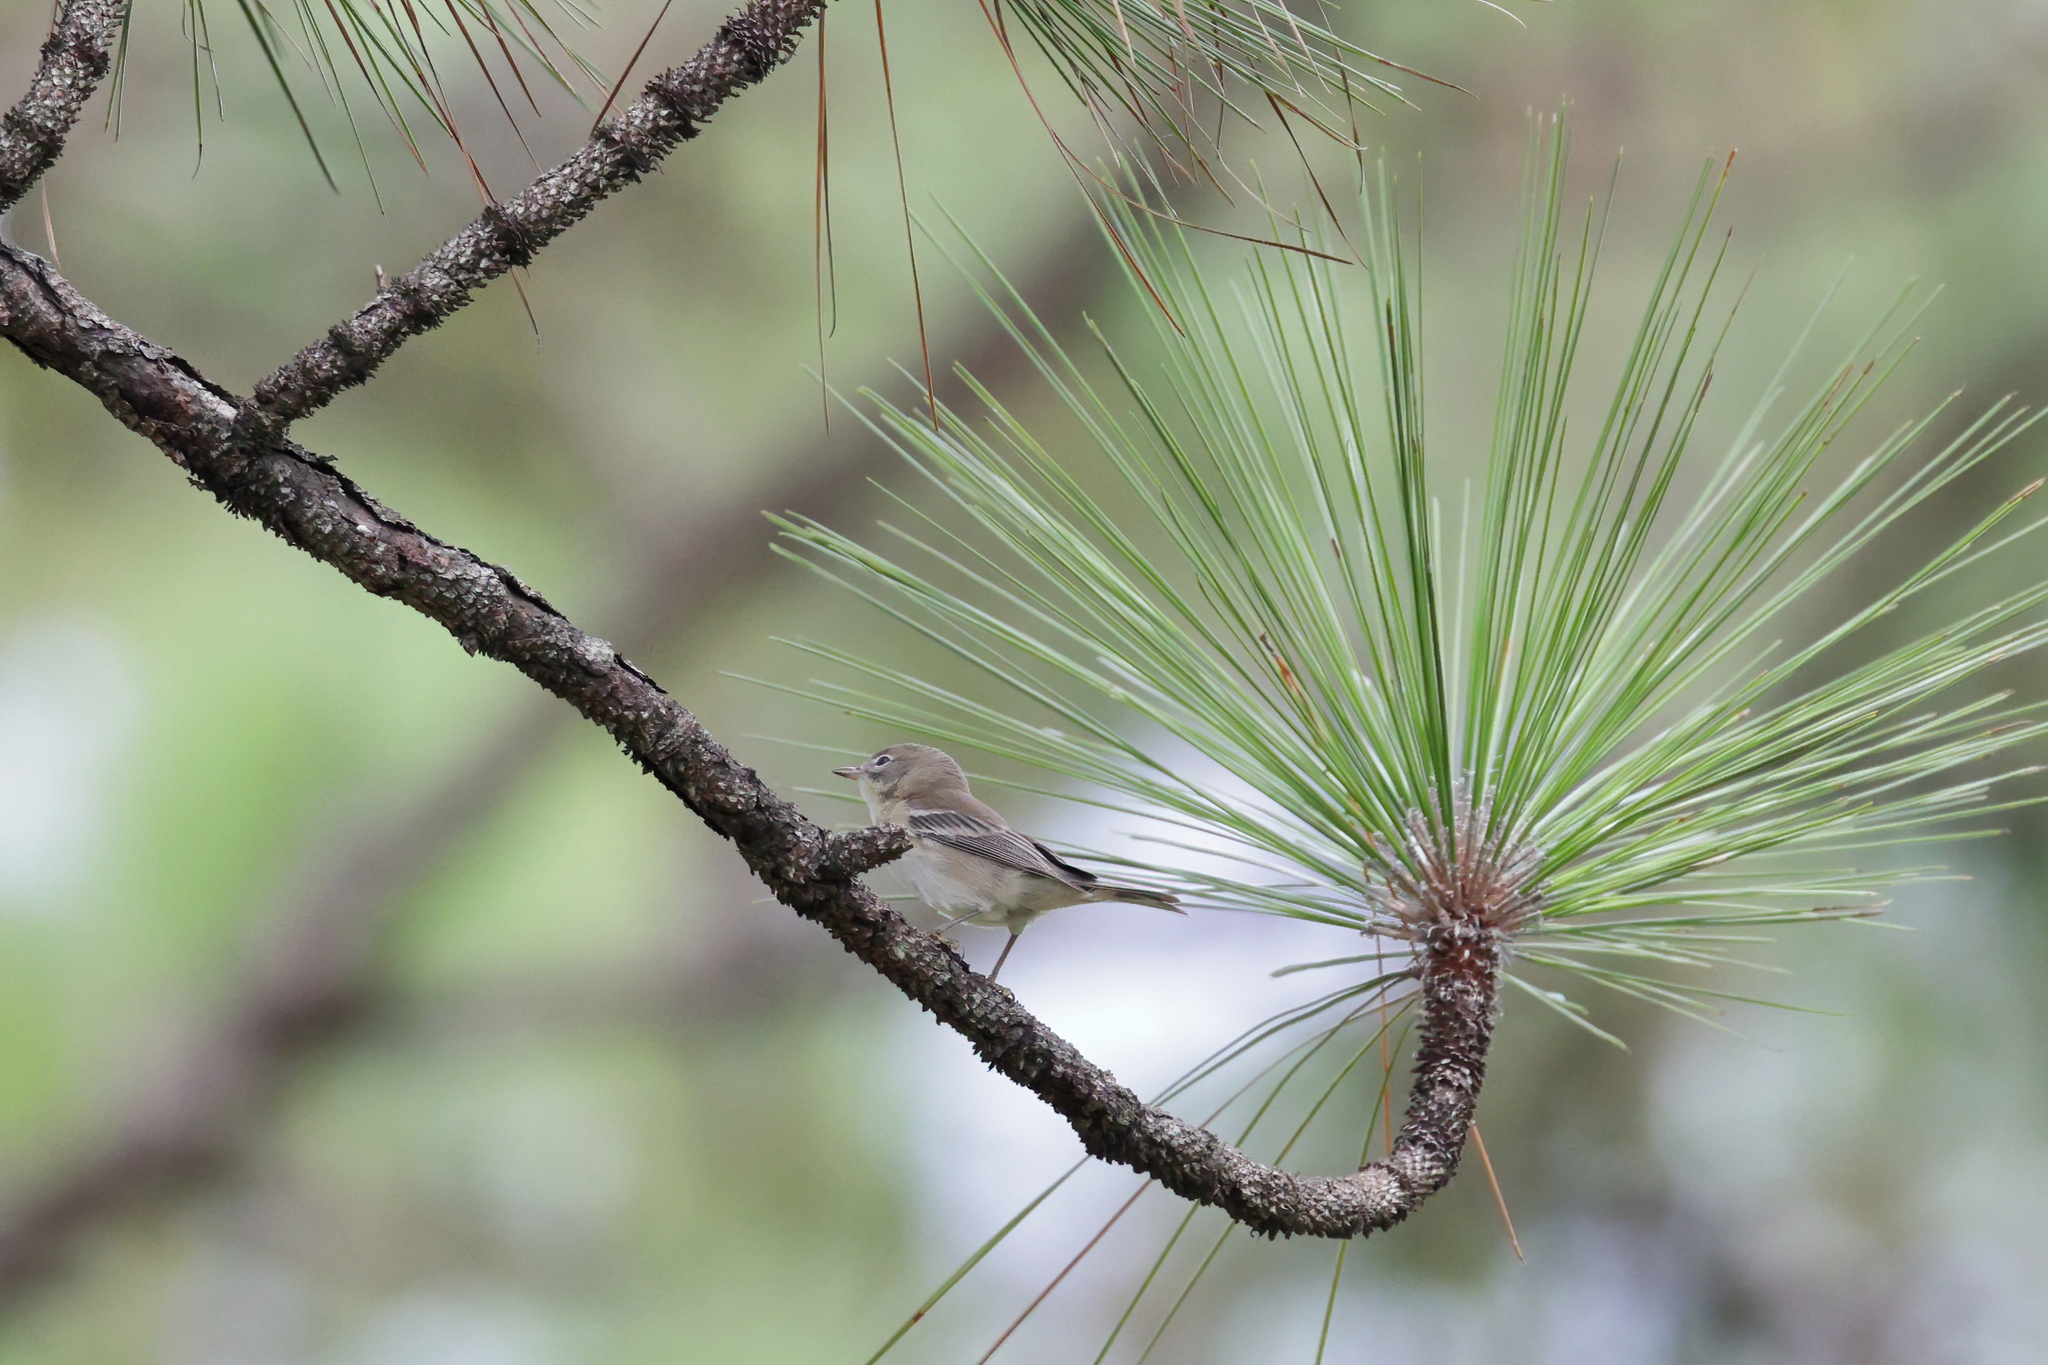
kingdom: Animalia
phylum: Chordata
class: Aves
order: Passeriformes
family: Parulidae
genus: Setophaga
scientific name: Setophaga pinus
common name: Pine warbler
